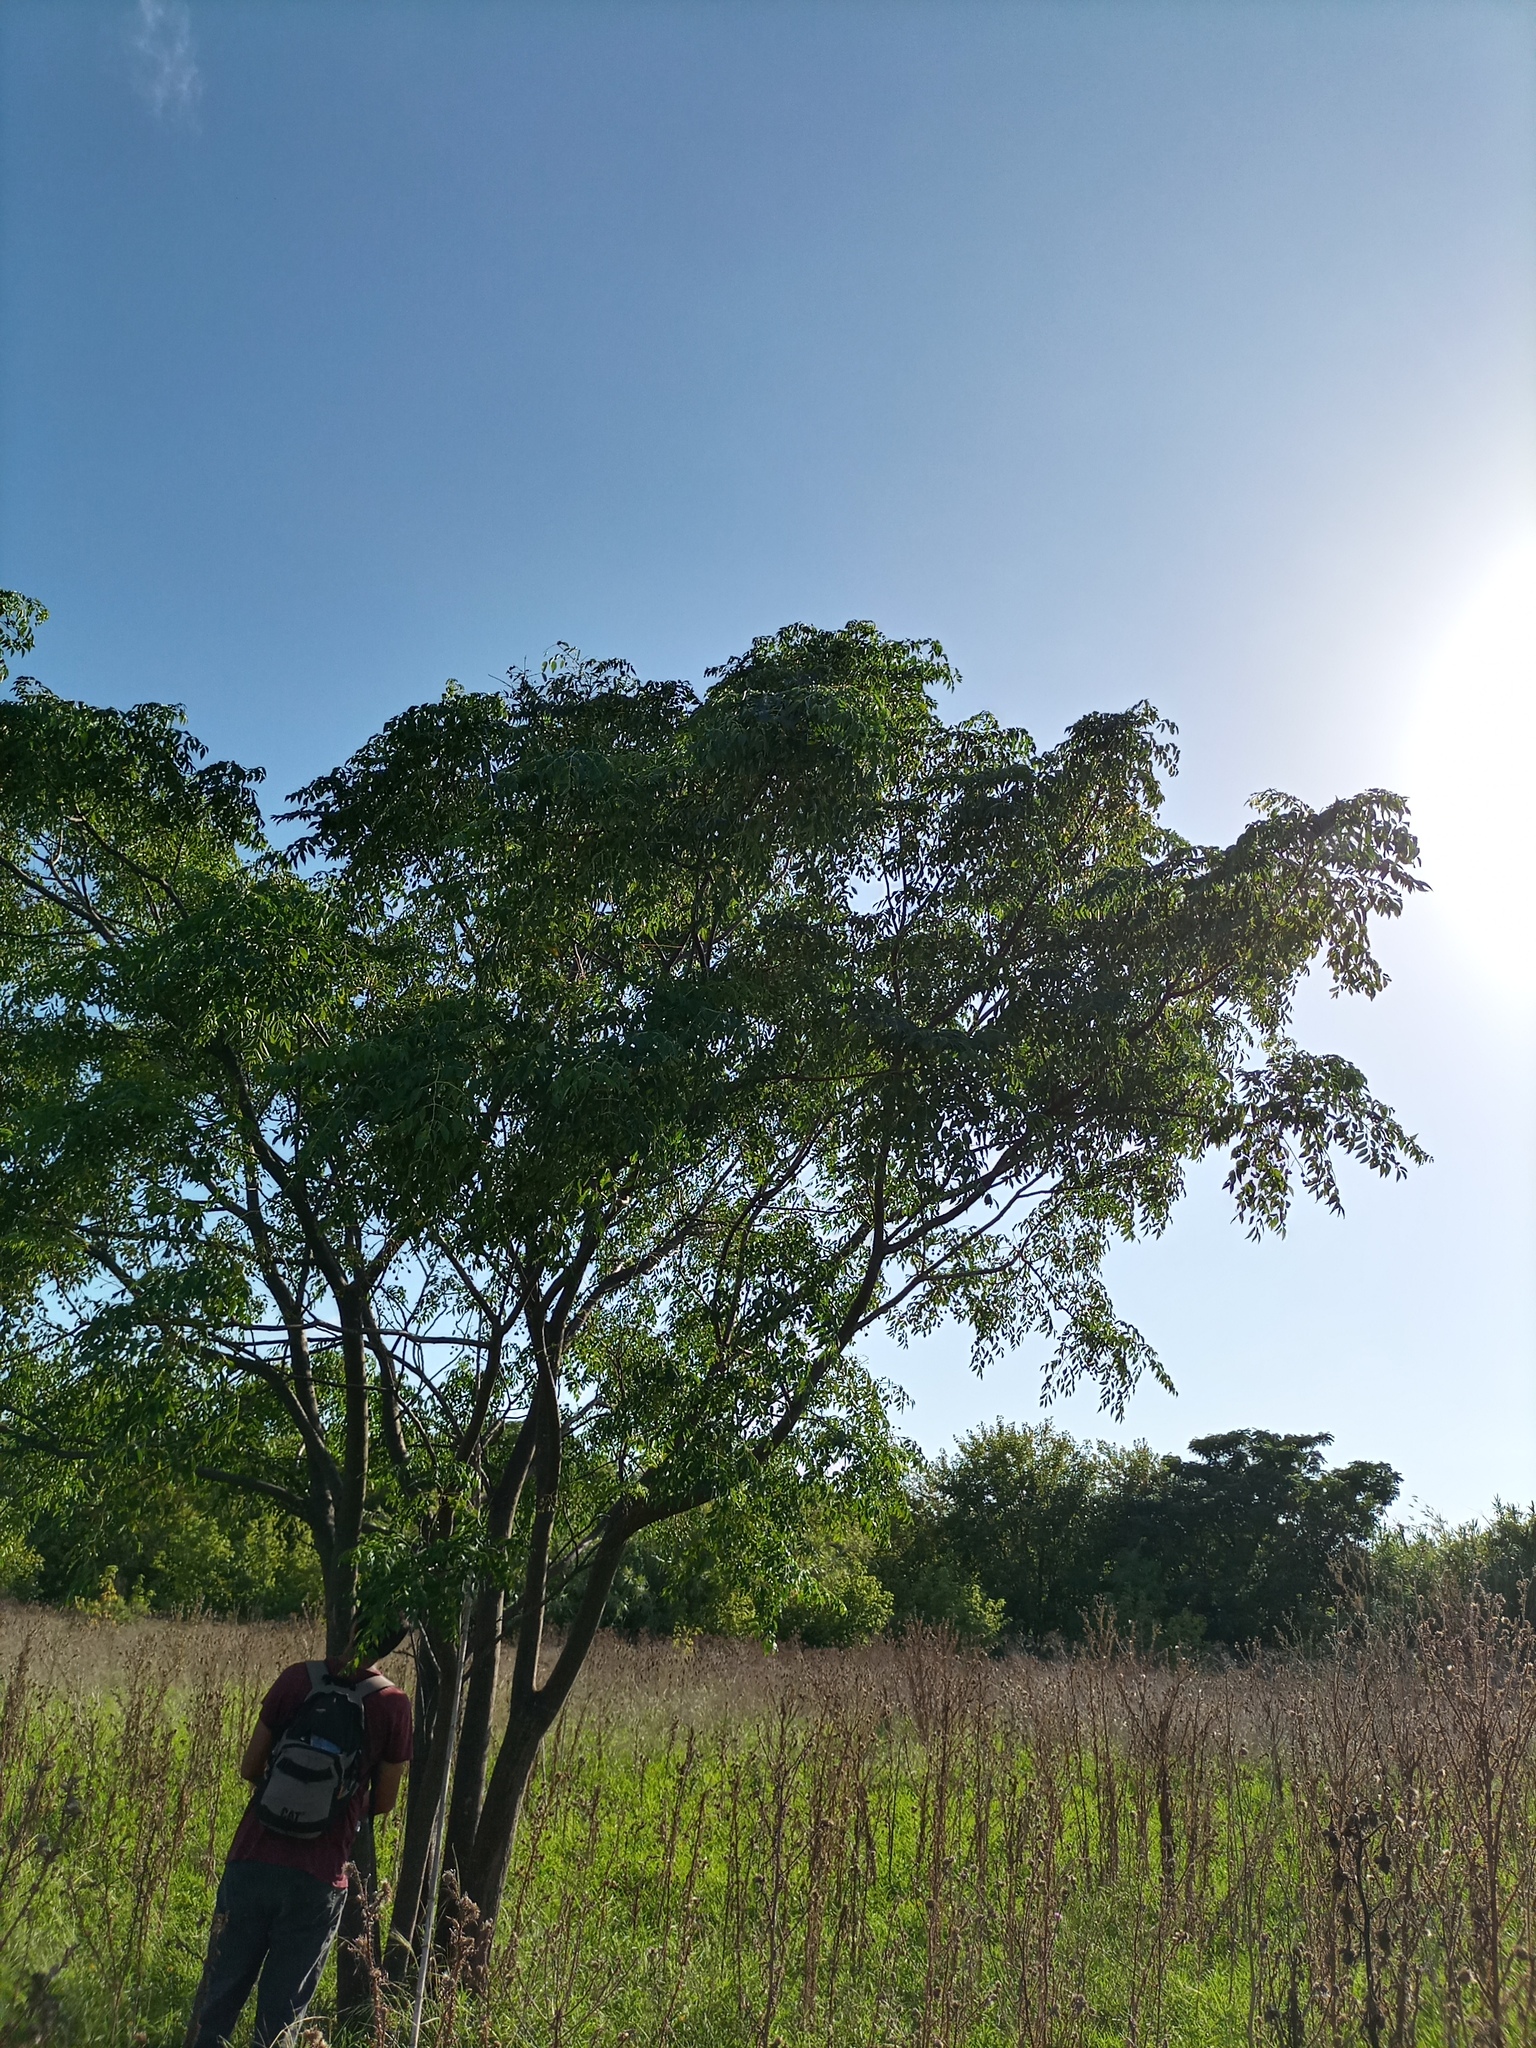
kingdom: Plantae
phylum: Tracheophyta
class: Magnoliopsida
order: Sapindales
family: Meliaceae
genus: Melia
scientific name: Melia azedarach
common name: Chinaberrytree
